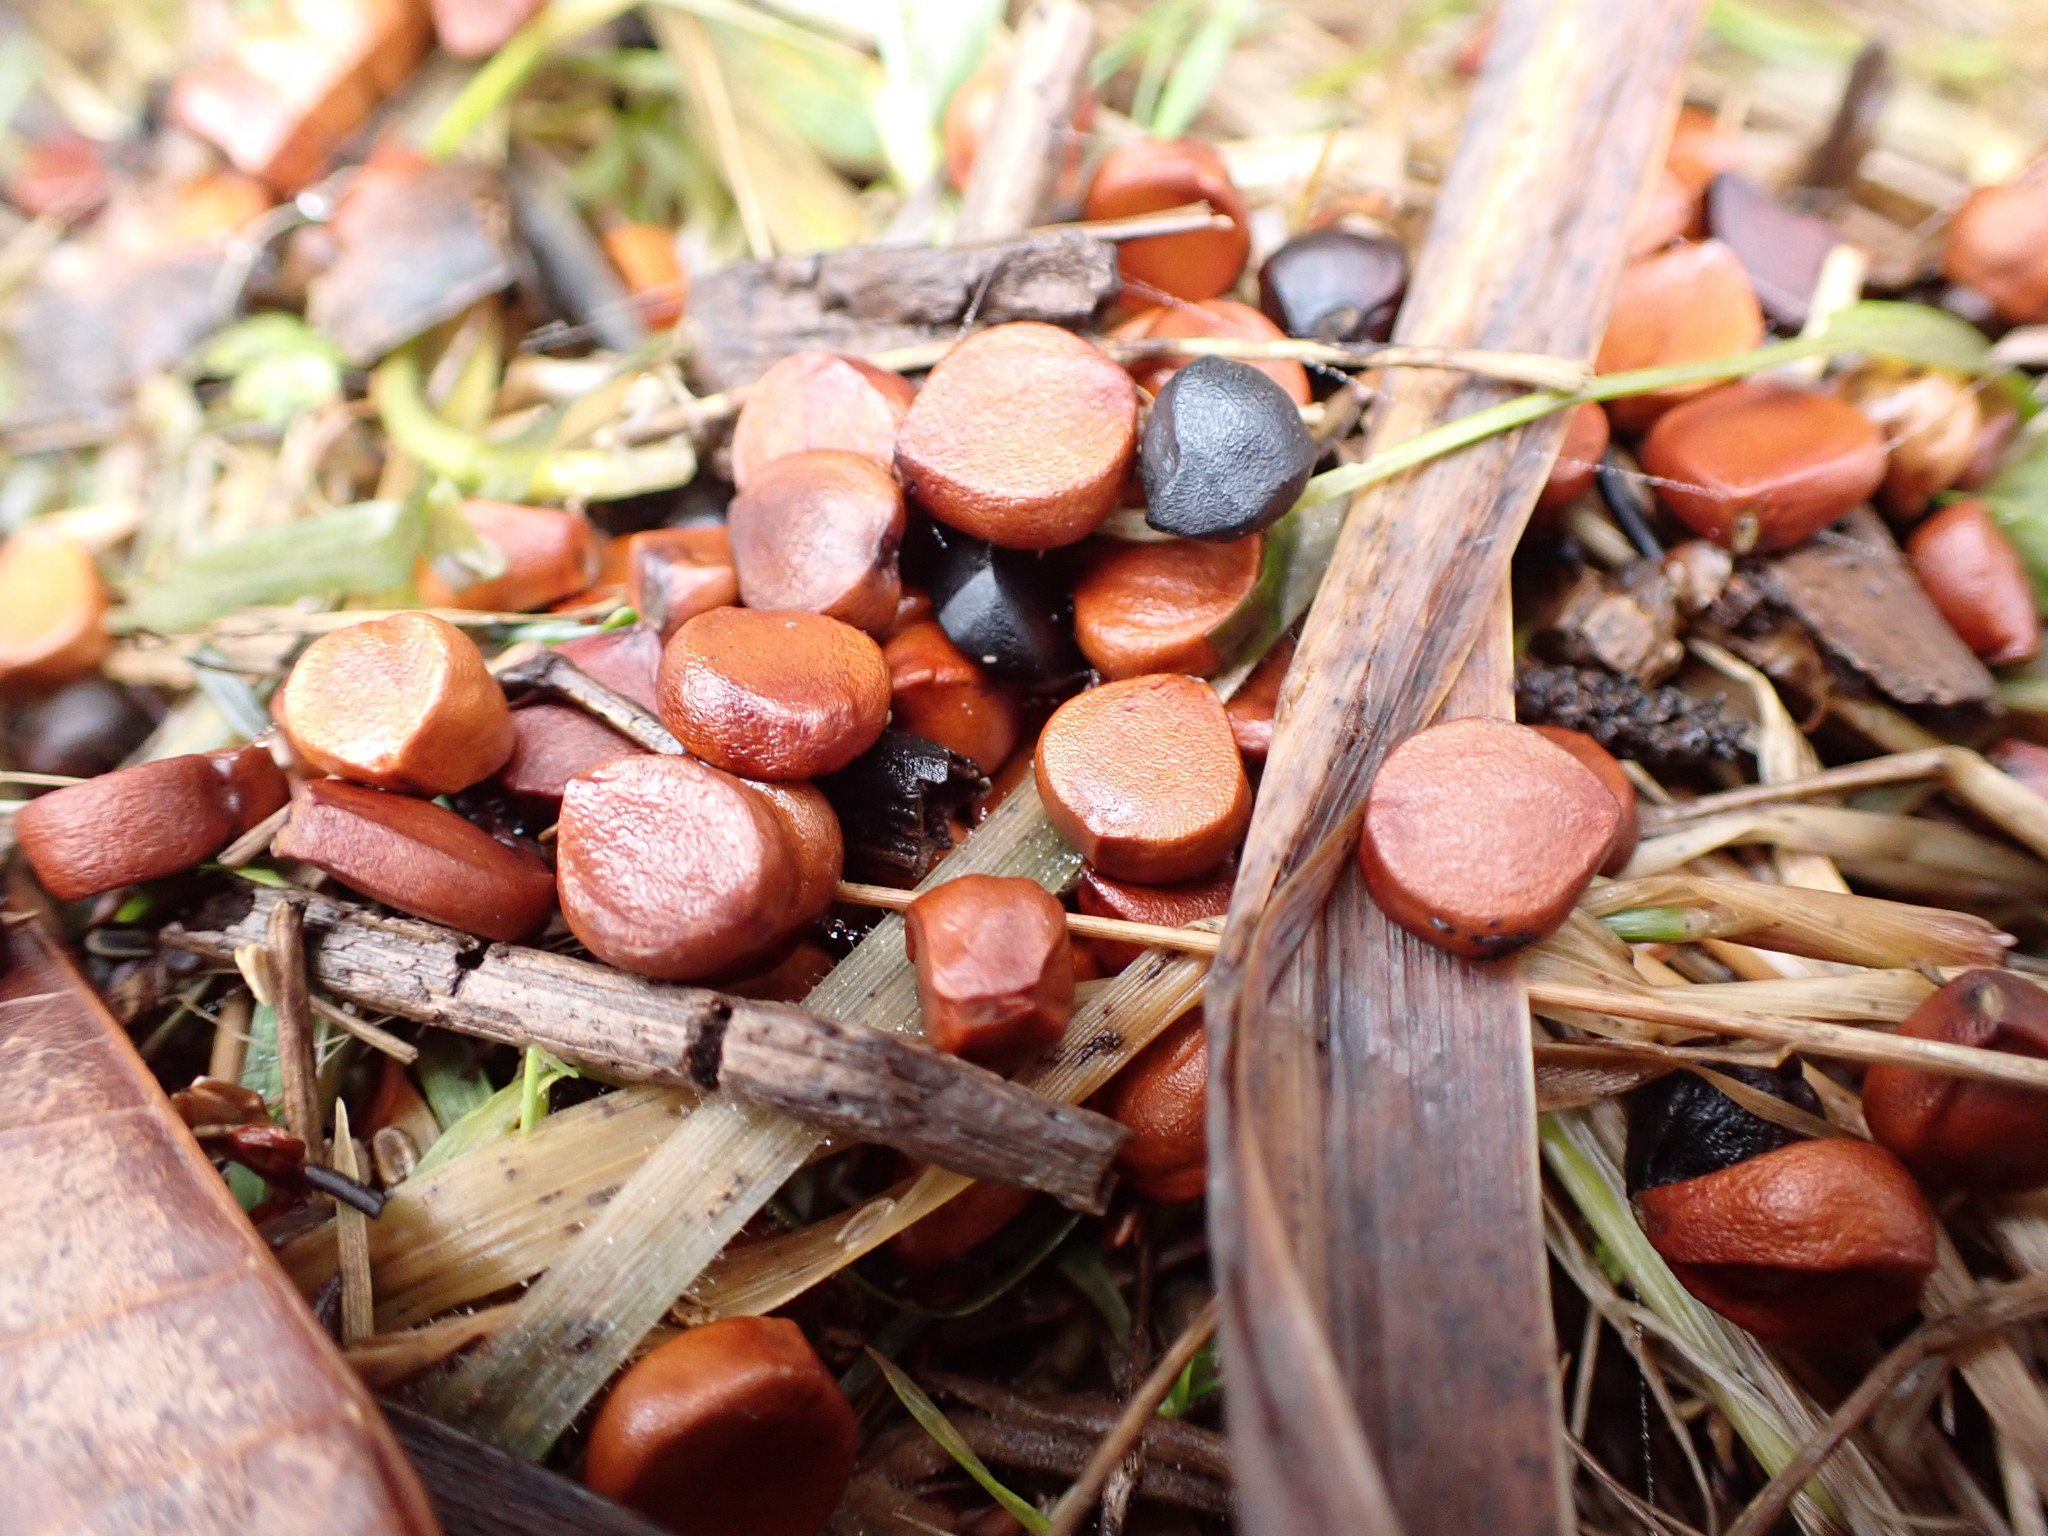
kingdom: Plantae
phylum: Tracheophyta
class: Liliopsida
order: Asparagales
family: Iridaceae
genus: Iris
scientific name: Iris pseudacorus
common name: Yellow flag
